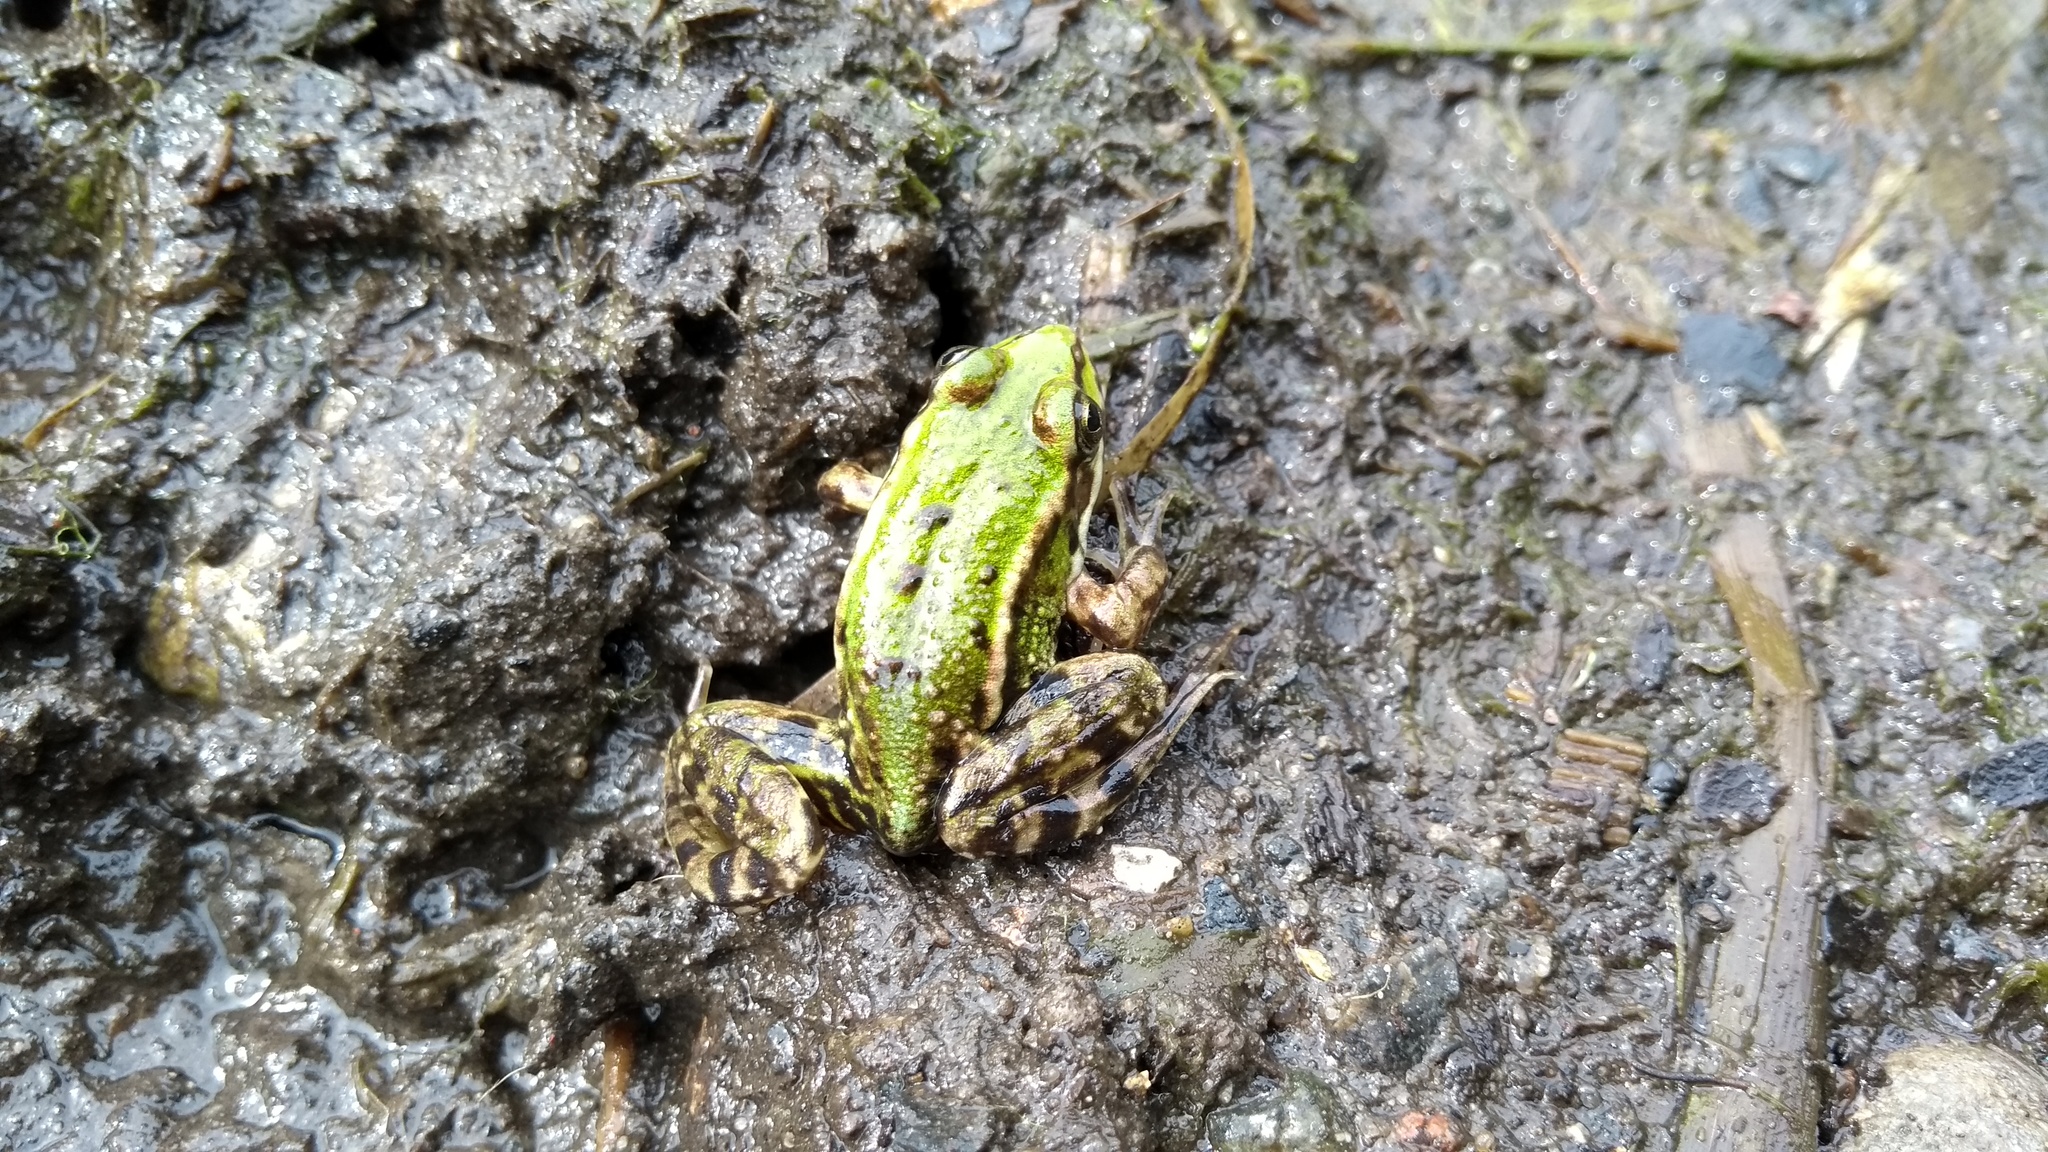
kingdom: Animalia
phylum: Chordata
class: Amphibia
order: Anura
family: Ranidae
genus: Pelophylax
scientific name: Pelophylax
